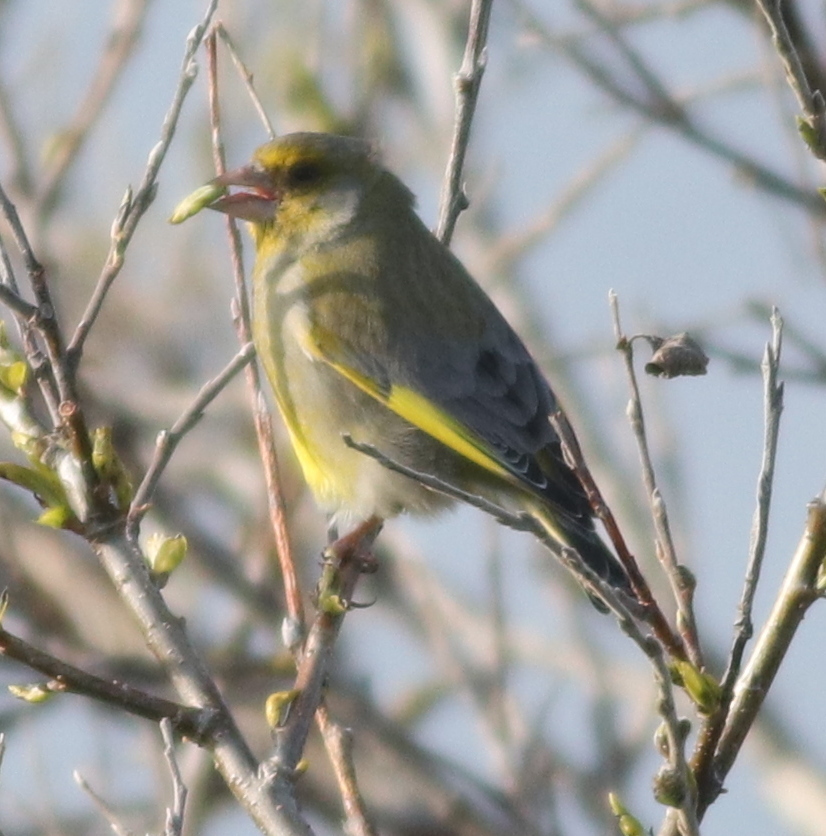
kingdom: Plantae
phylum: Tracheophyta
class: Liliopsida
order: Poales
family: Poaceae
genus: Chloris
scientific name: Chloris chloris
